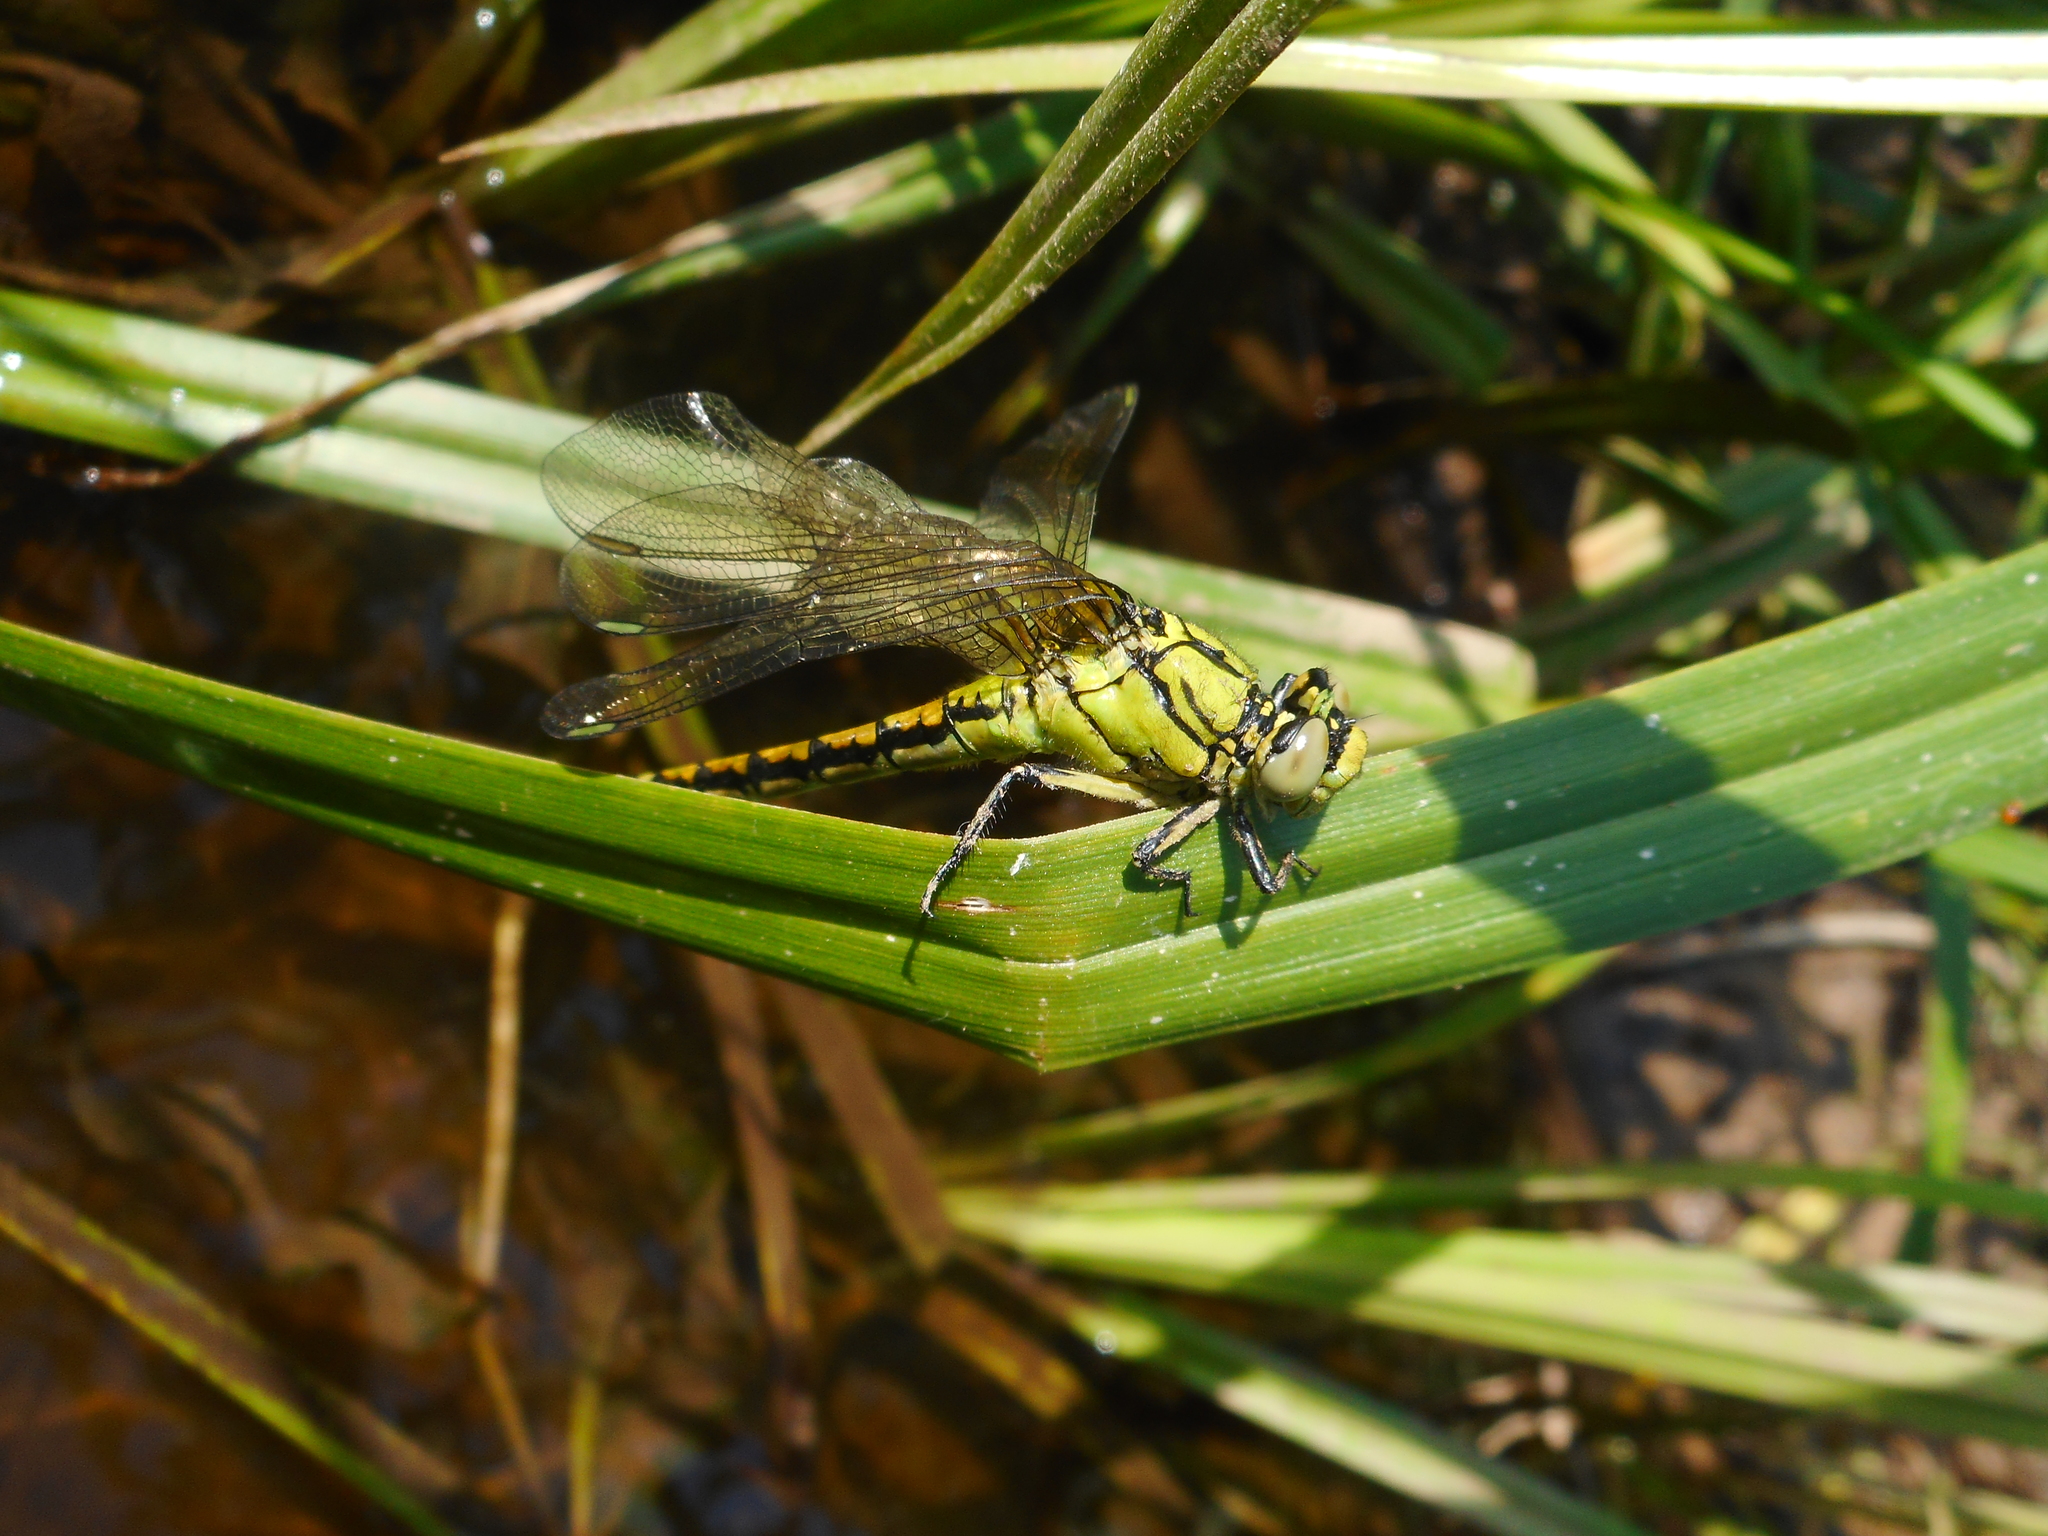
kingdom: Animalia
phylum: Arthropoda
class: Insecta
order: Odonata
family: Gomphidae
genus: Ophiogomphus
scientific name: Ophiogomphus cecilia
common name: Green snaketail
